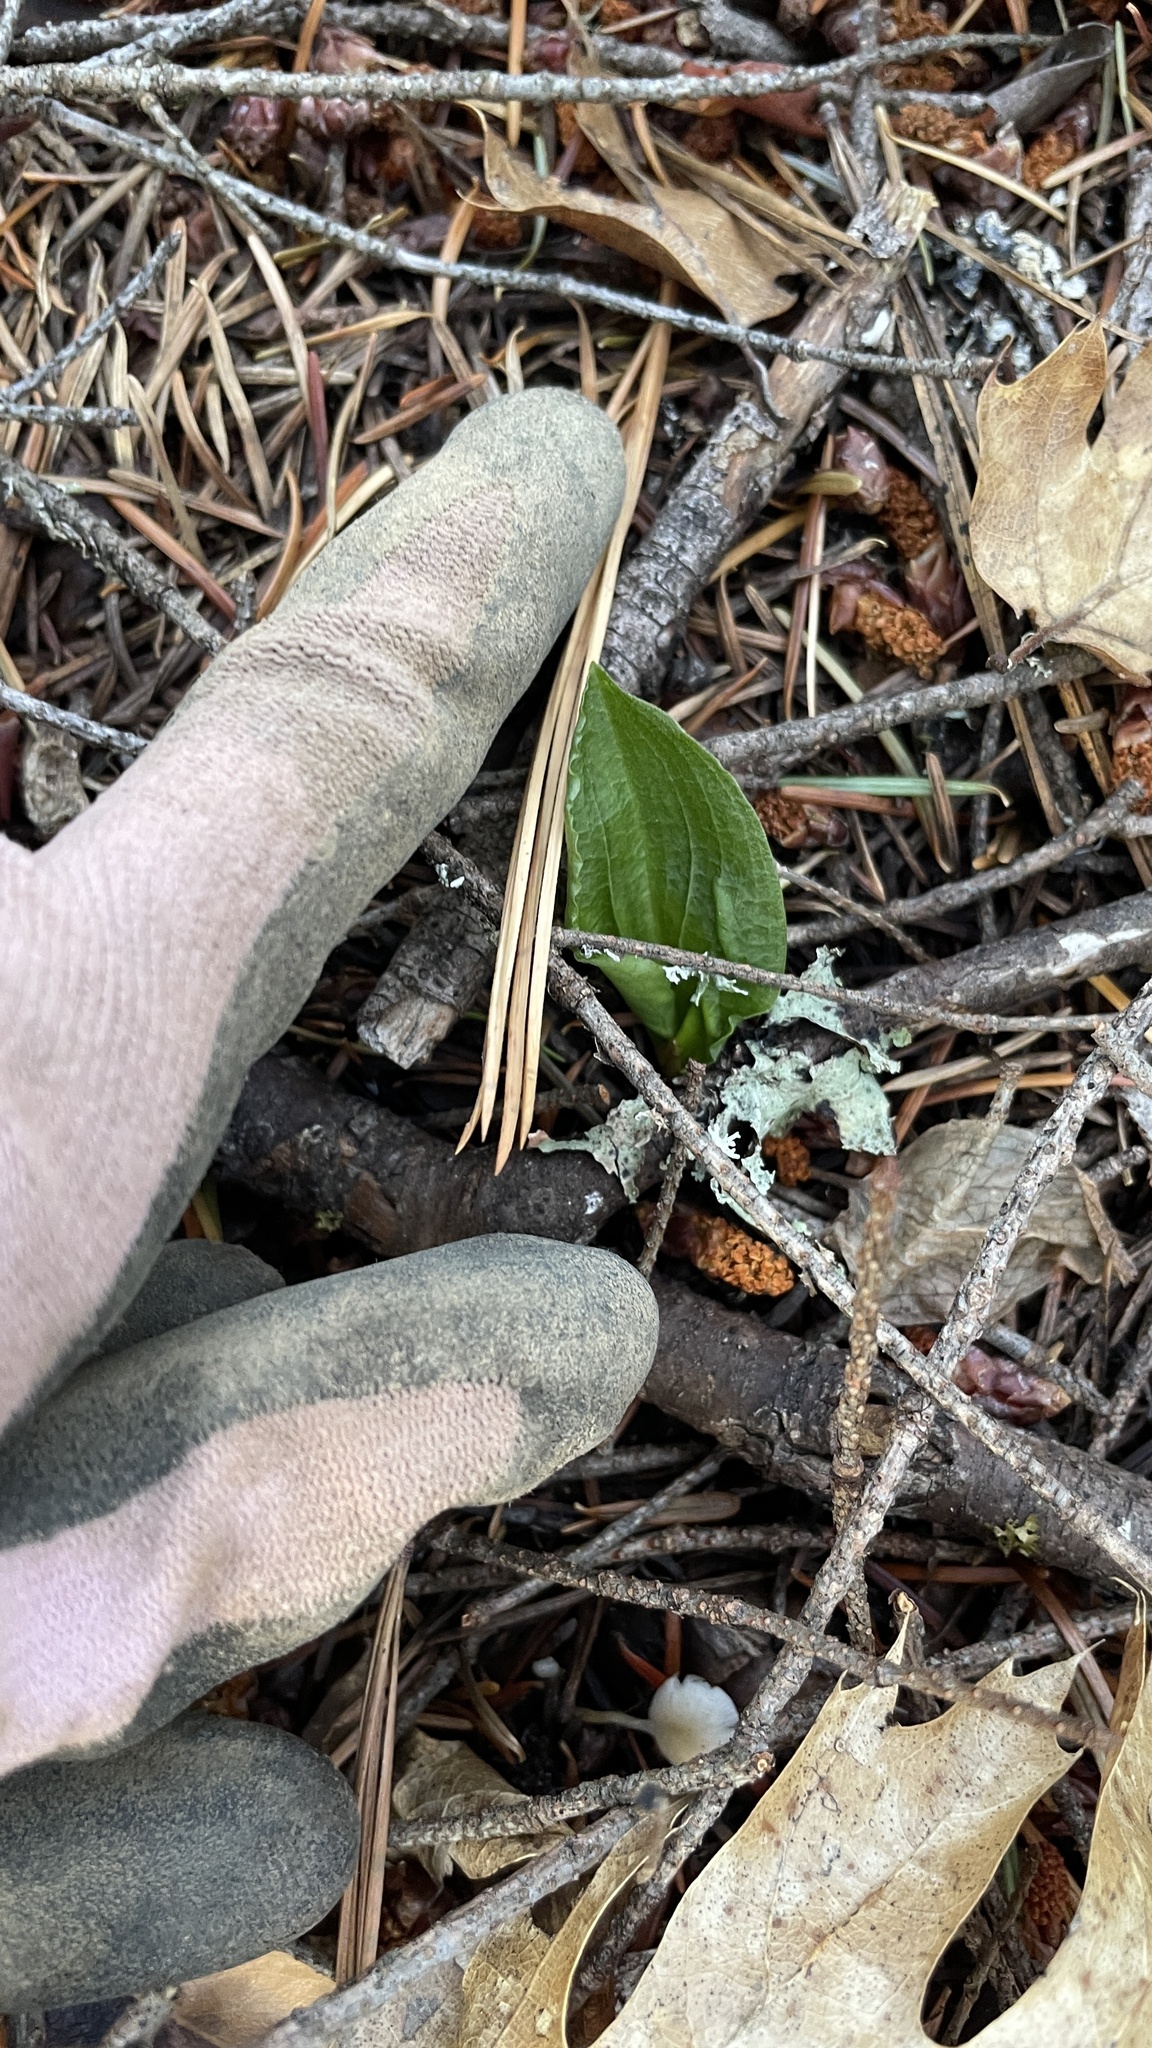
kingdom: Plantae
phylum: Tracheophyta
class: Liliopsida
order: Asparagales
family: Orchidaceae
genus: Calypso
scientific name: Calypso bulbosa
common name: Calypso
